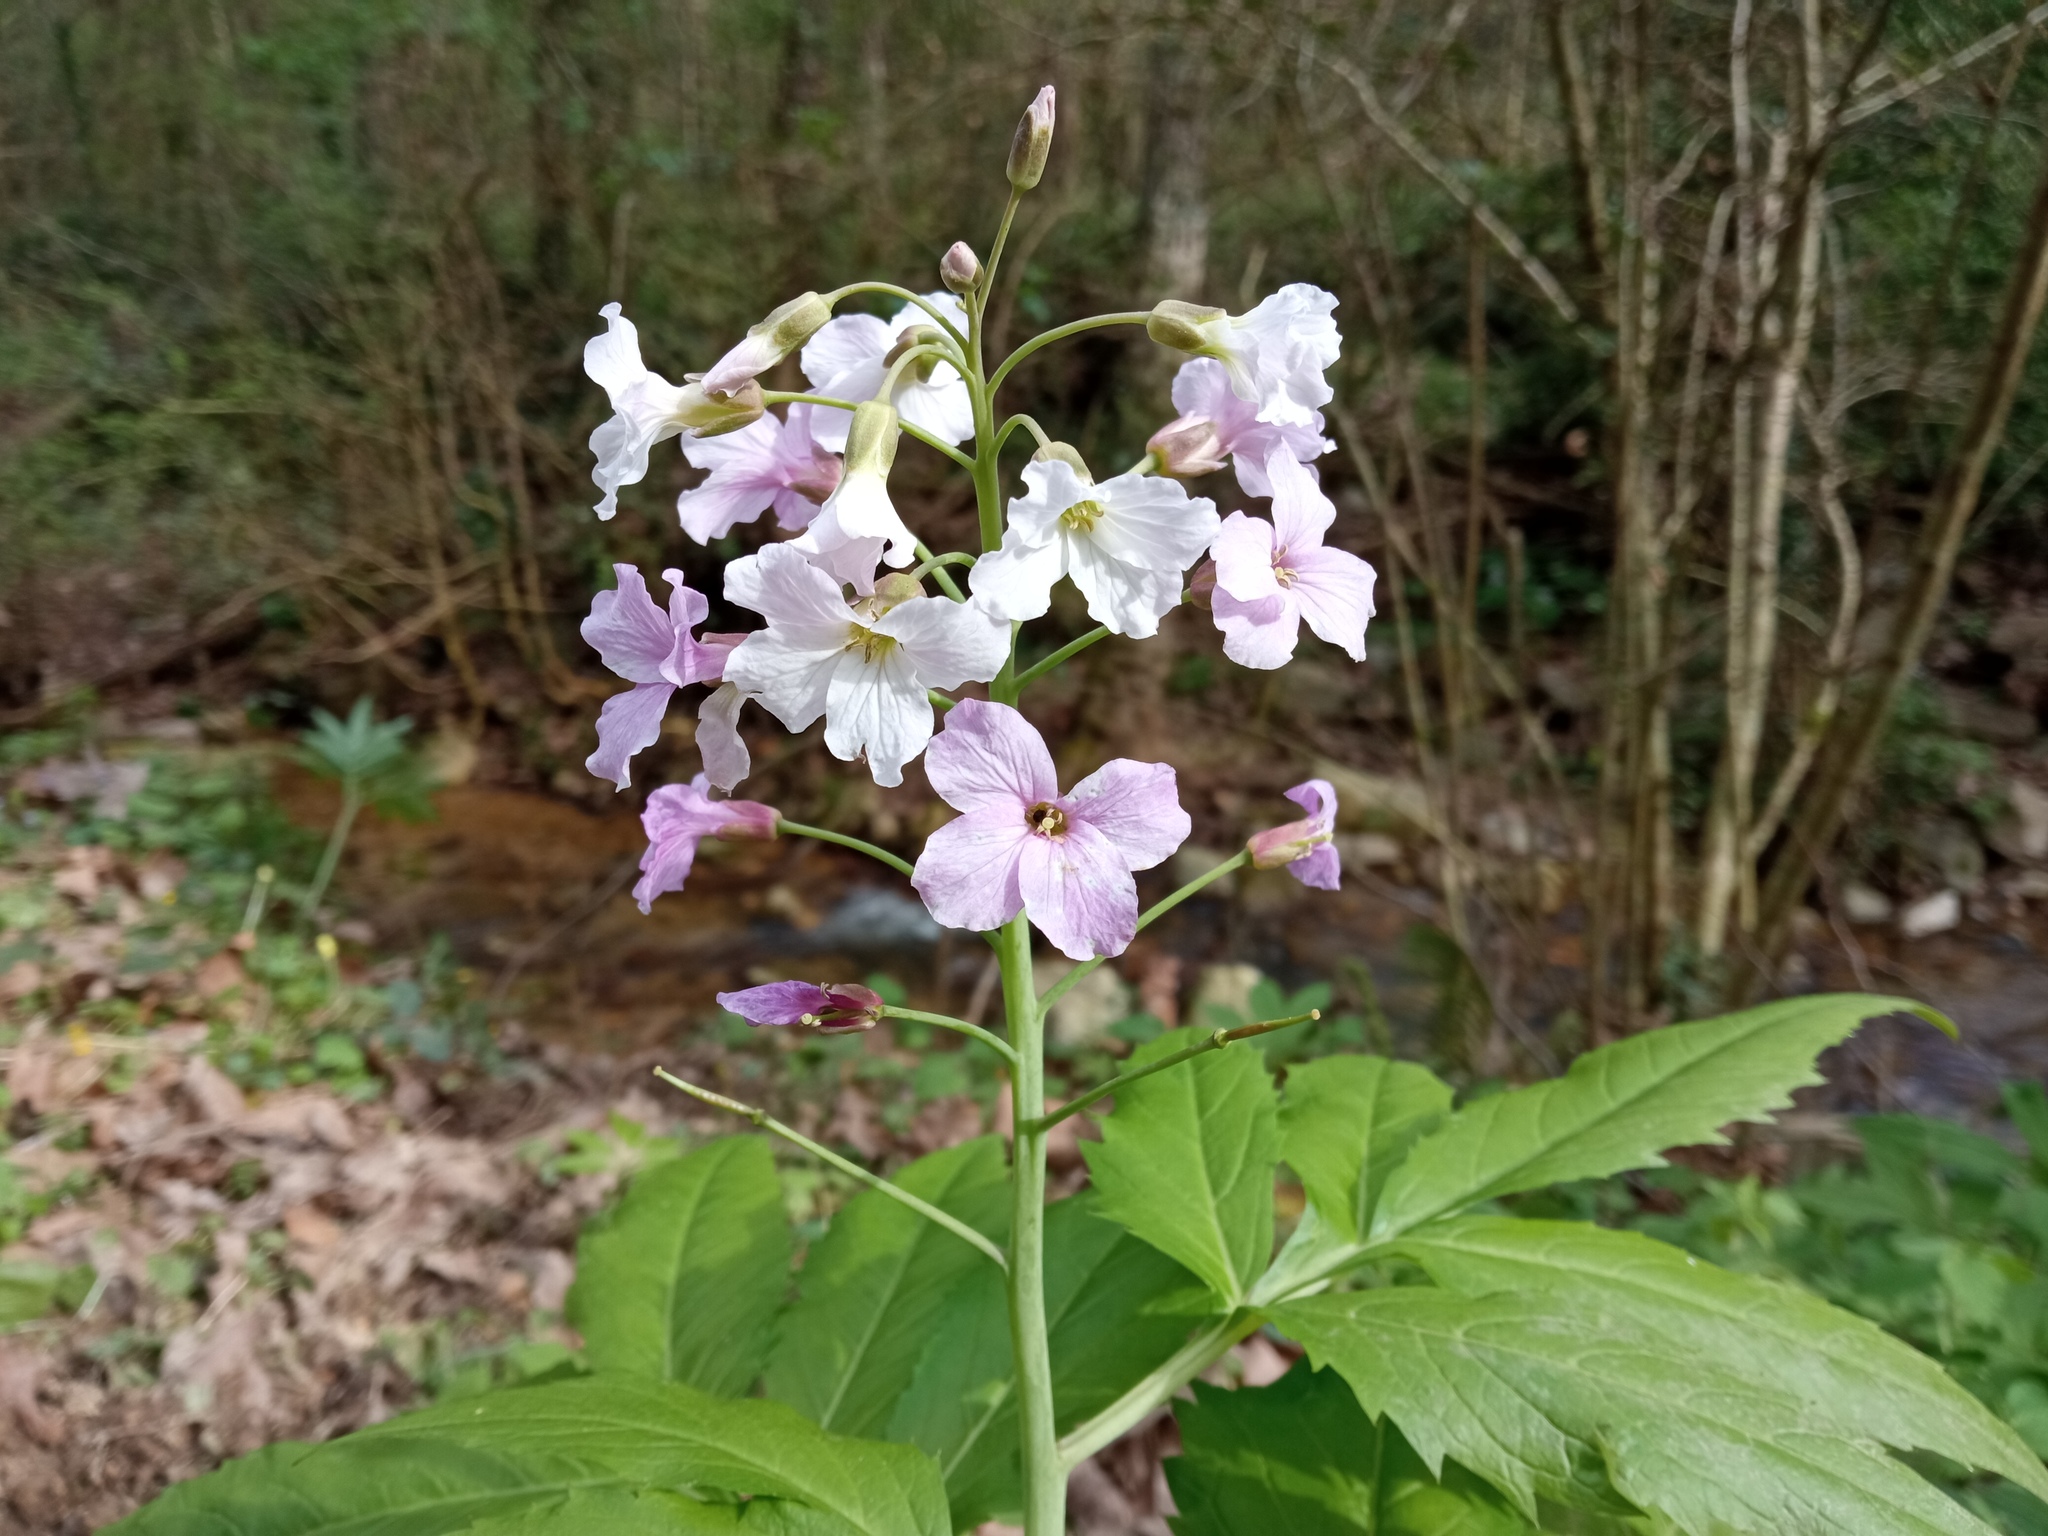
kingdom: Plantae
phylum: Tracheophyta
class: Magnoliopsida
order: Brassicales
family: Brassicaceae
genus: Cardamine
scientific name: Cardamine heptaphylla
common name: Pinnate coralroot
